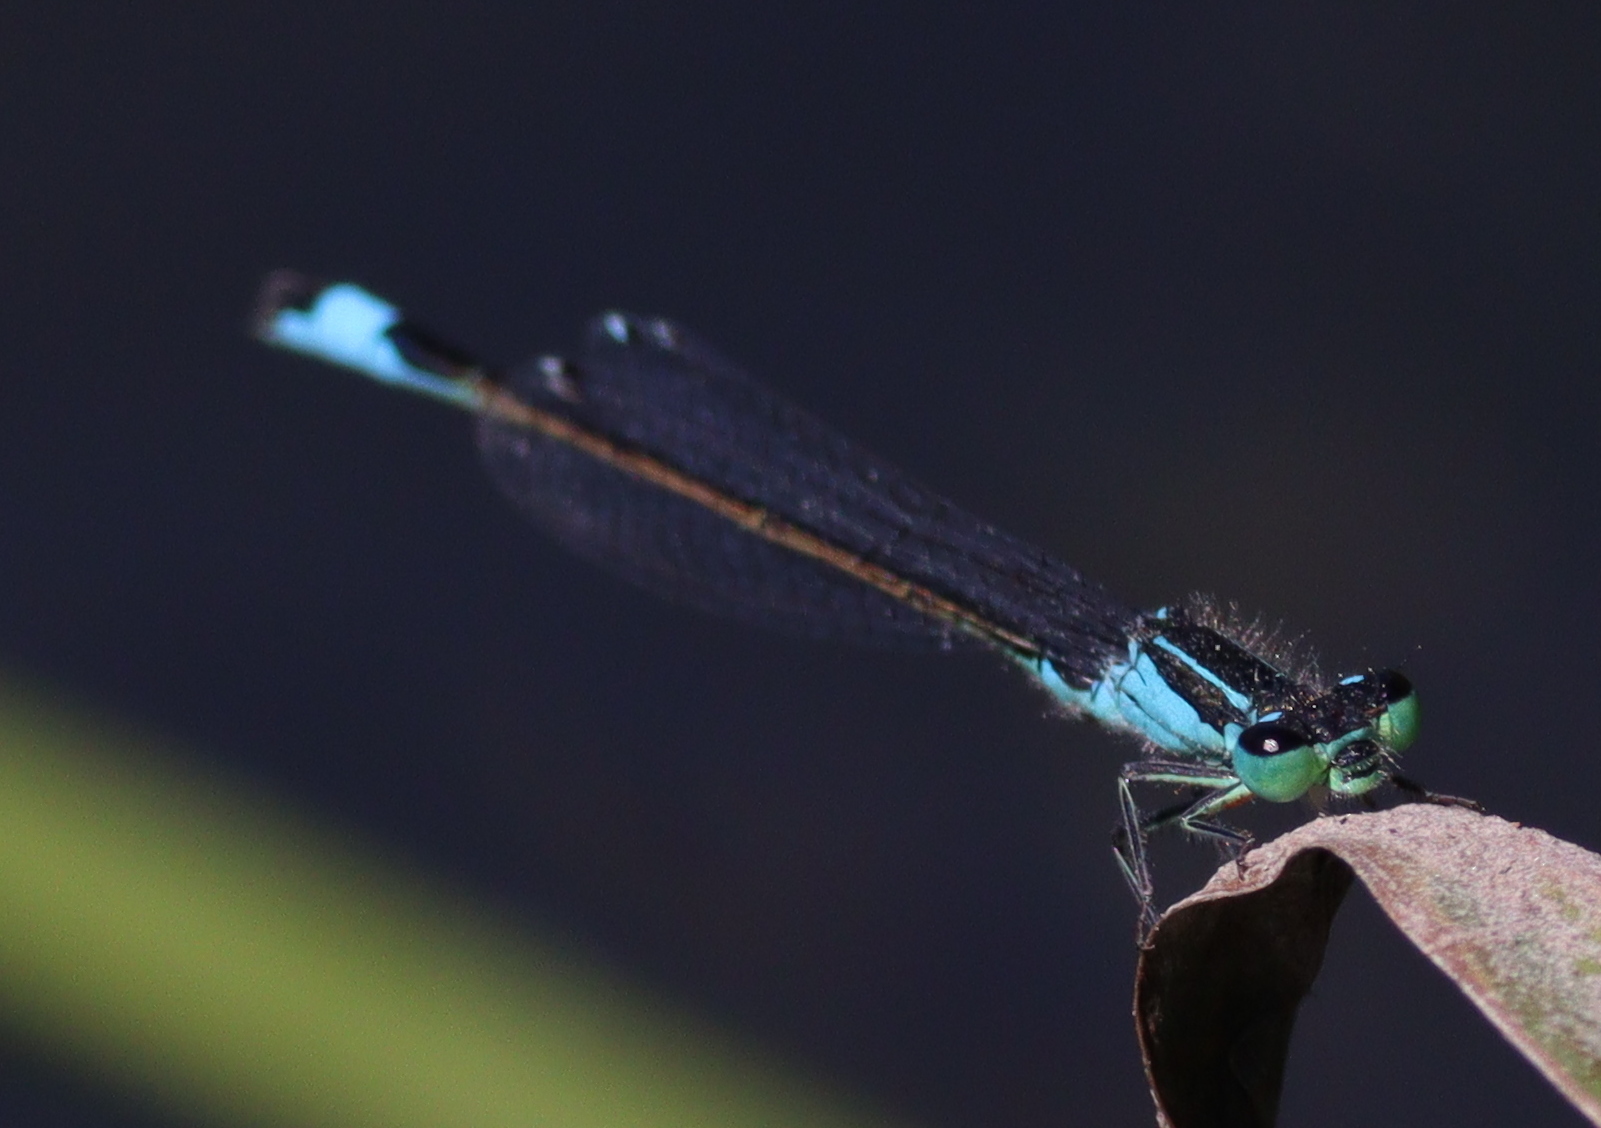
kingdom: Animalia
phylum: Arthropoda
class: Insecta
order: Odonata
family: Coenagrionidae
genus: Ischnura
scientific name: Ischnura elegans
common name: Blue-tailed damselfly
